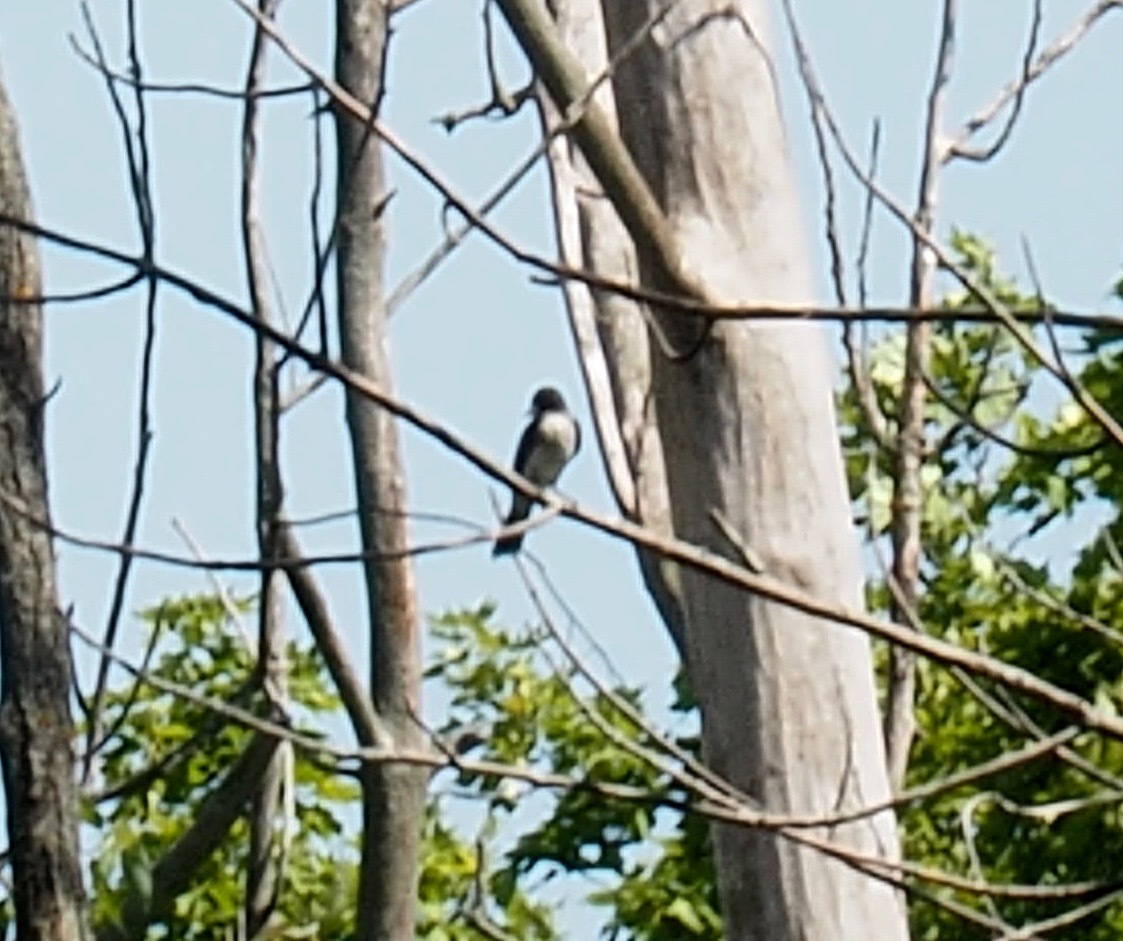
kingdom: Animalia
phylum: Chordata
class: Aves
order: Passeriformes
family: Tyrannidae
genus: Tyrannus
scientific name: Tyrannus tyrannus
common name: Eastern kingbird
